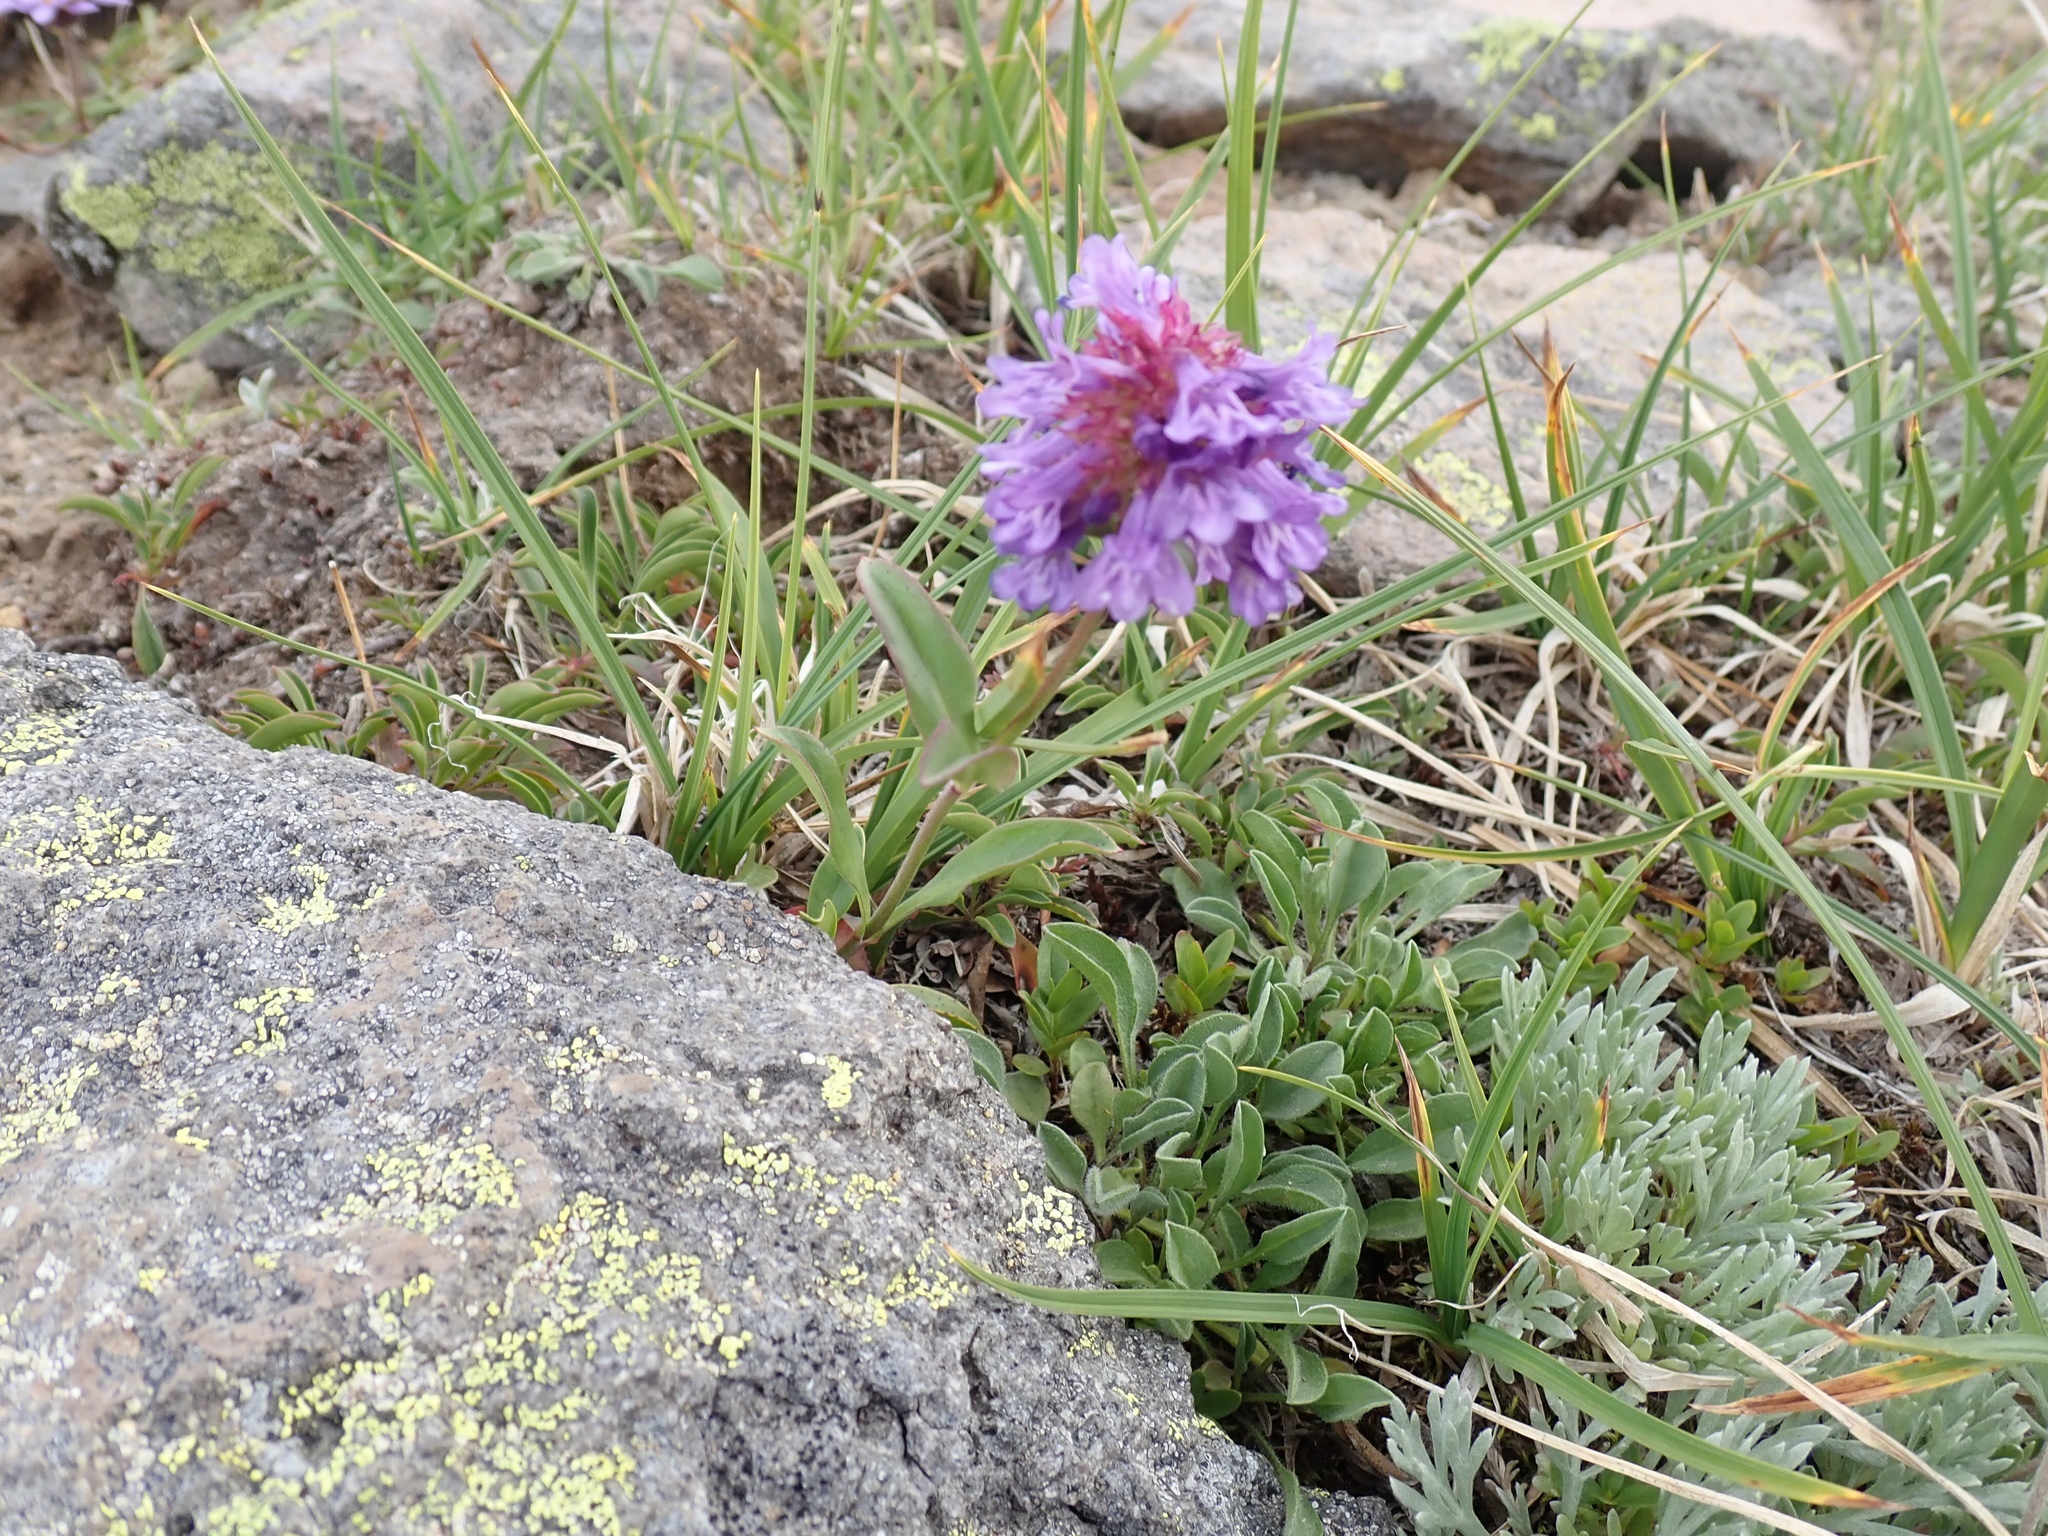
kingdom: Plantae
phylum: Tracheophyta
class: Magnoliopsida
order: Lamiales
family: Plantaginaceae
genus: Penstemon
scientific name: Penstemon procerus
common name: Small-flower penstemon
